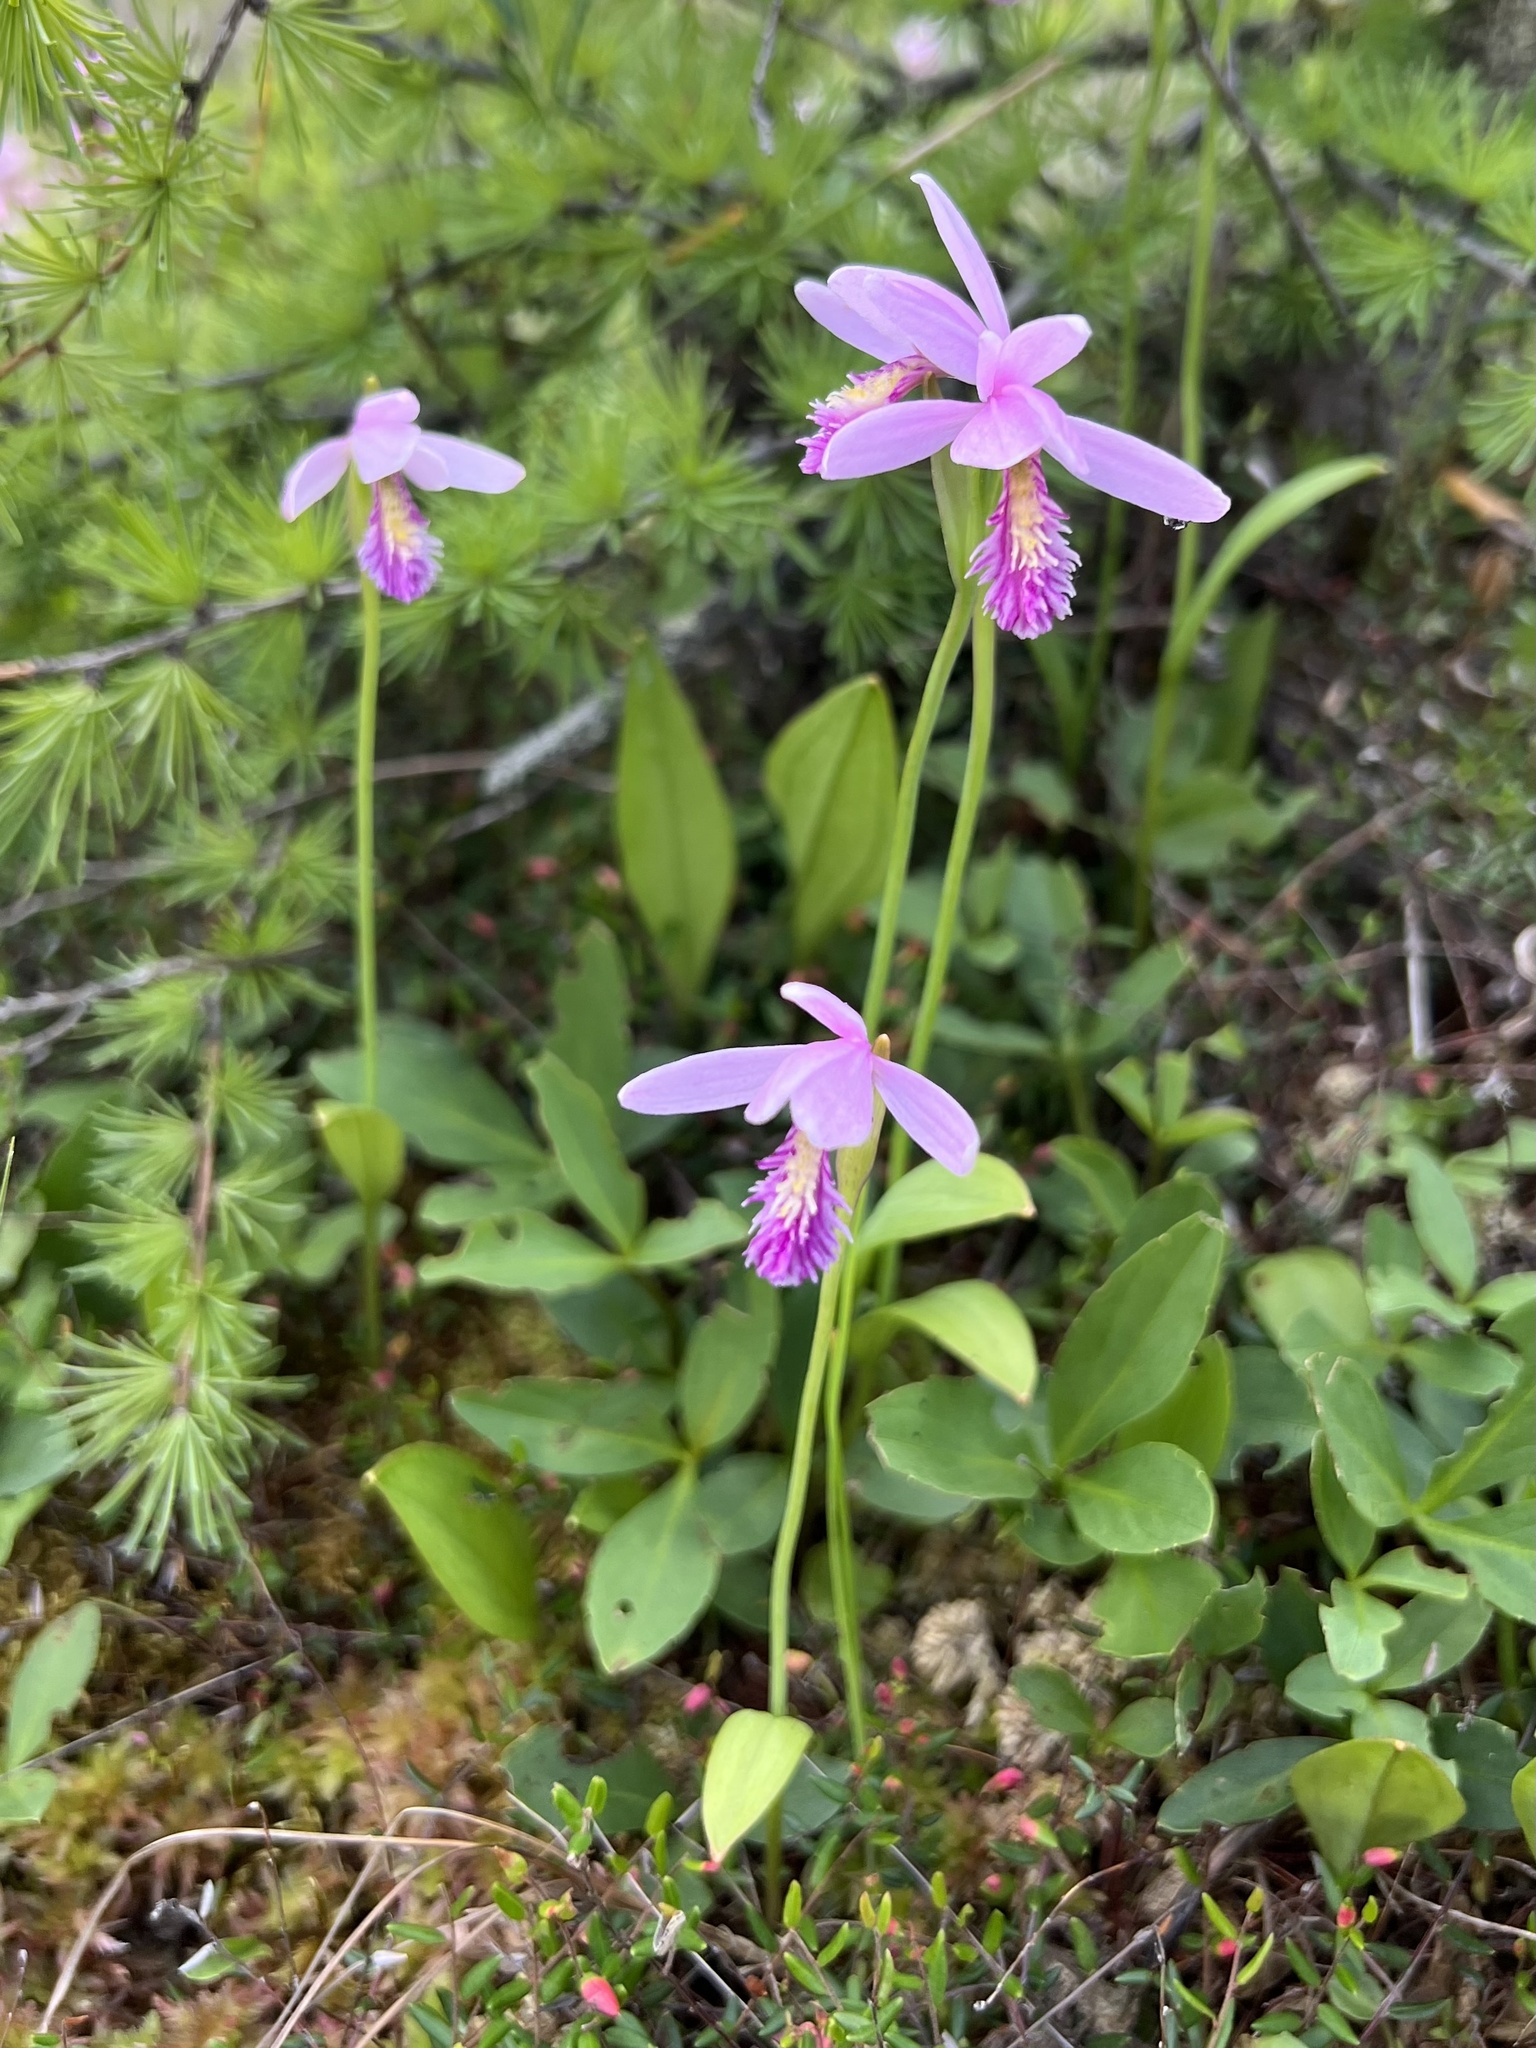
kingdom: Plantae
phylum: Tracheophyta
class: Liliopsida
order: Asparagales
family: Orchidaceae
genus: Pogonia
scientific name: Pogonia ophioglossoides
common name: Rose pogonia
